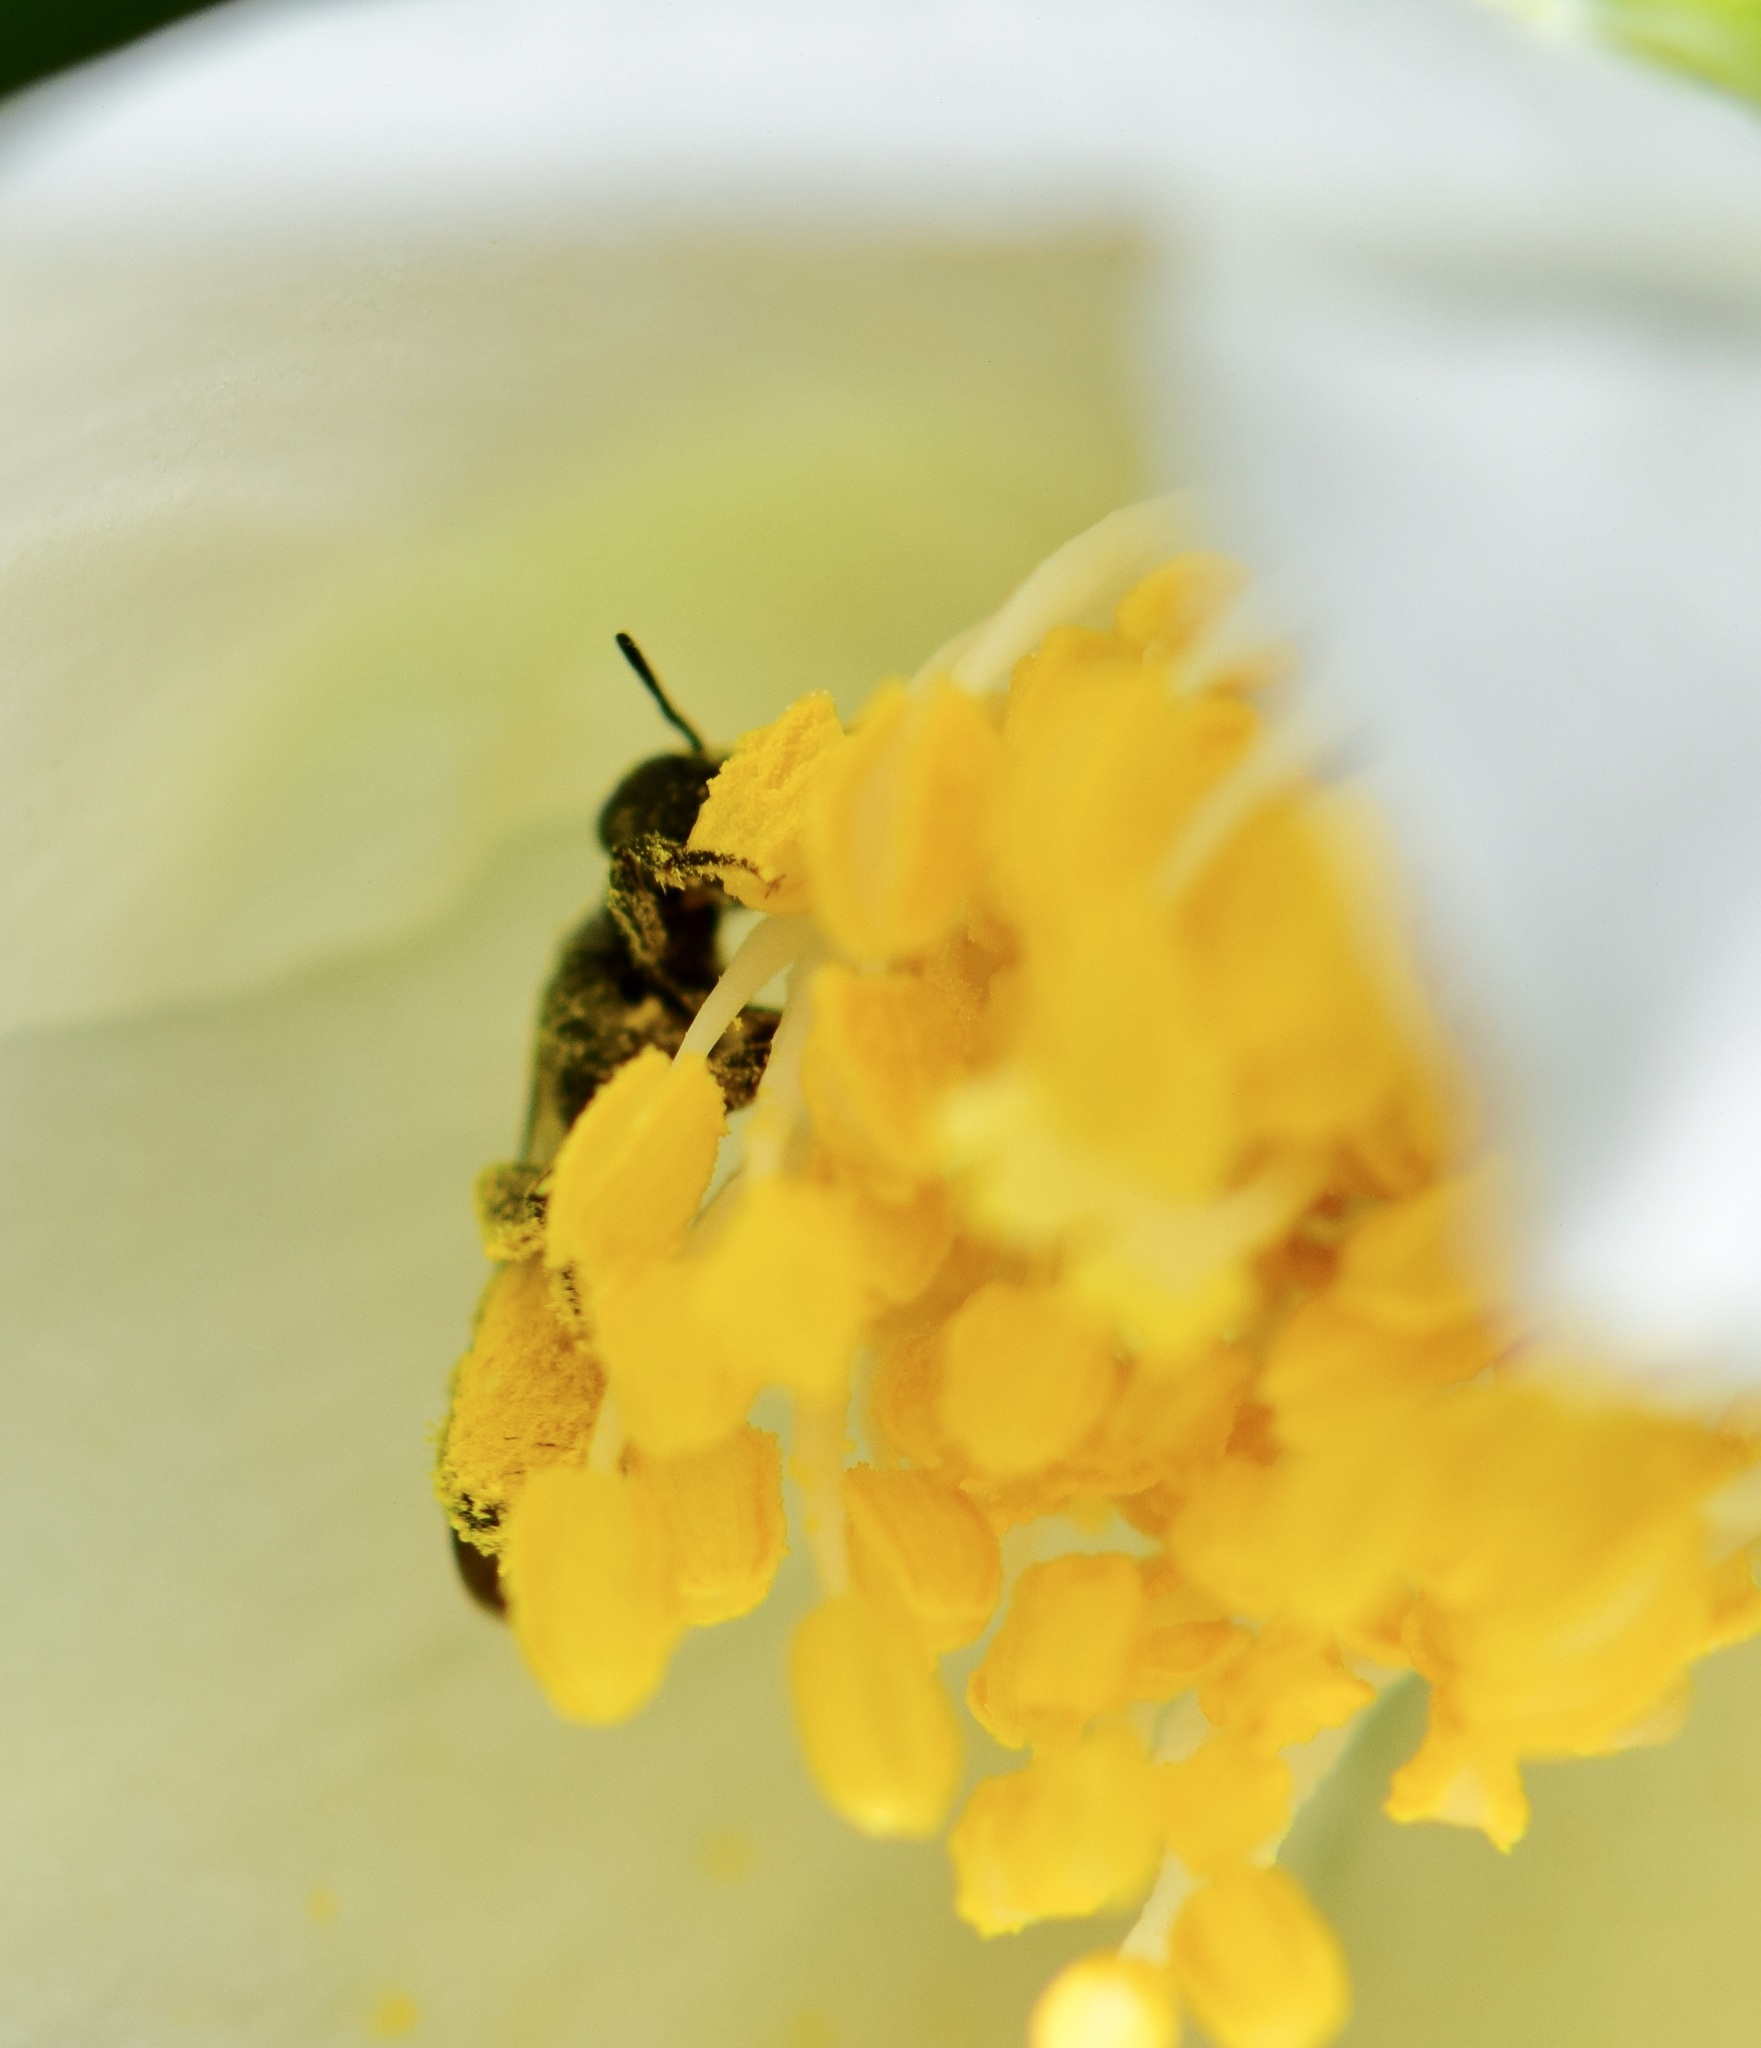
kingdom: Animalia
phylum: Arthropoda
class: Insecta
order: Hymenoptera
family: Megachilidae
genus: Chelostoma
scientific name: Chelostoma philadelphi
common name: Mock-orange scissor bee
